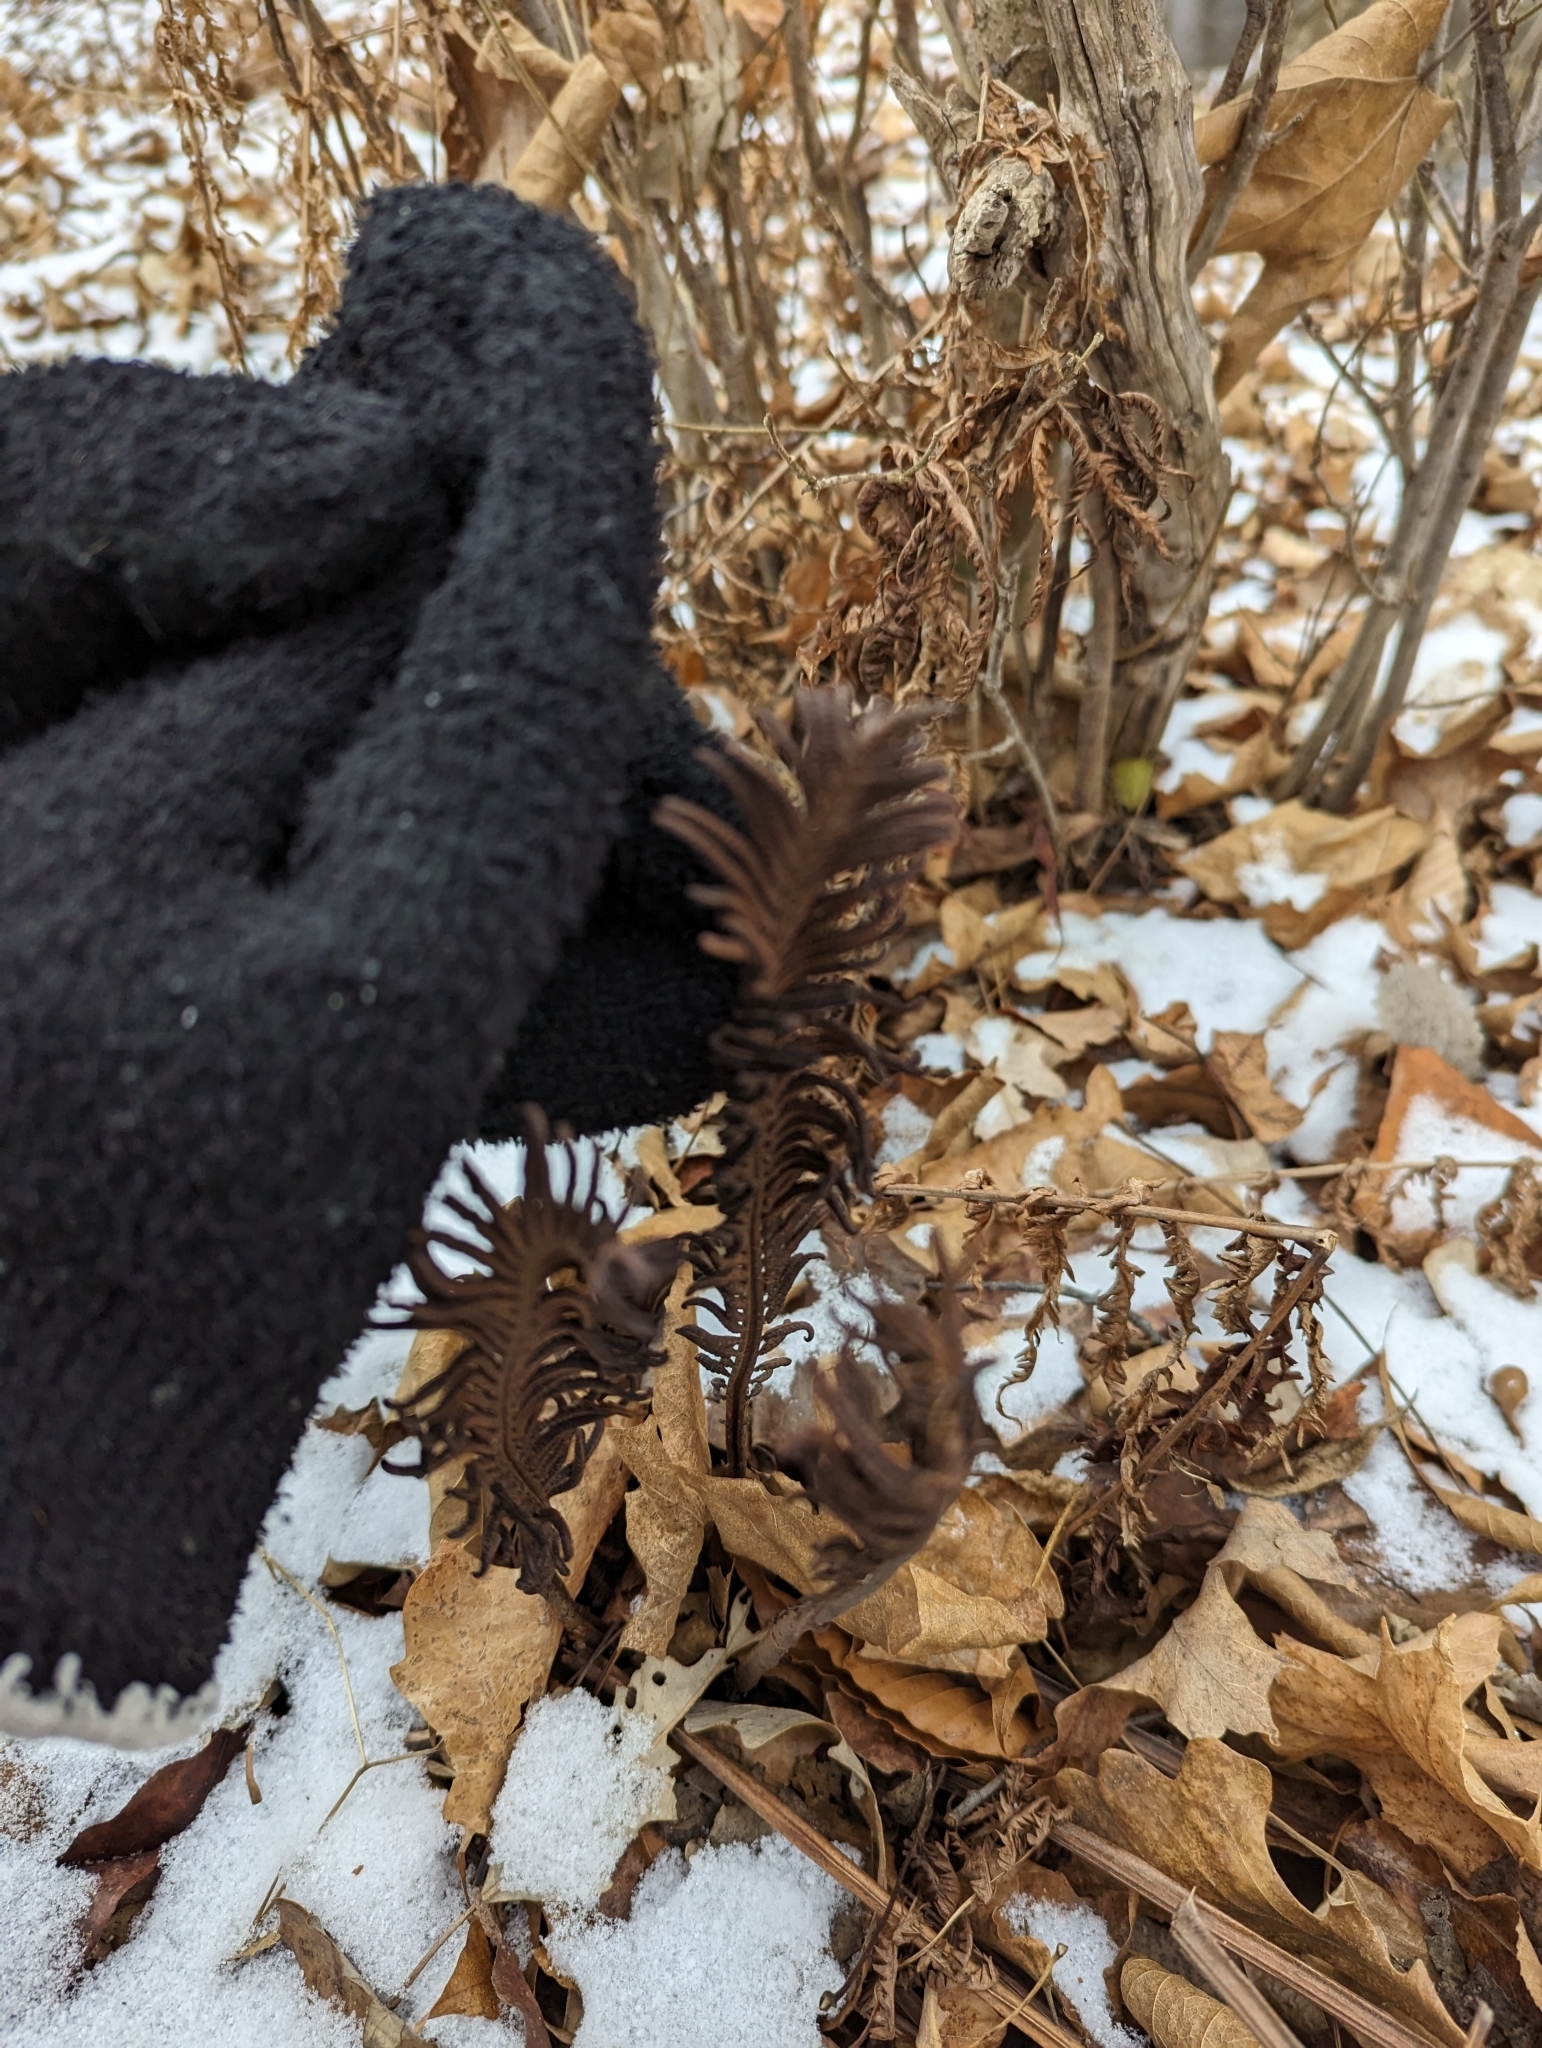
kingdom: Plantae
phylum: Tracheophyta
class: Polypodiopsida
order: Polypodiales
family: Onocleaceae
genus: Matteuccia
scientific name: Matteuccia struthiopteris
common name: Ostrich fern
